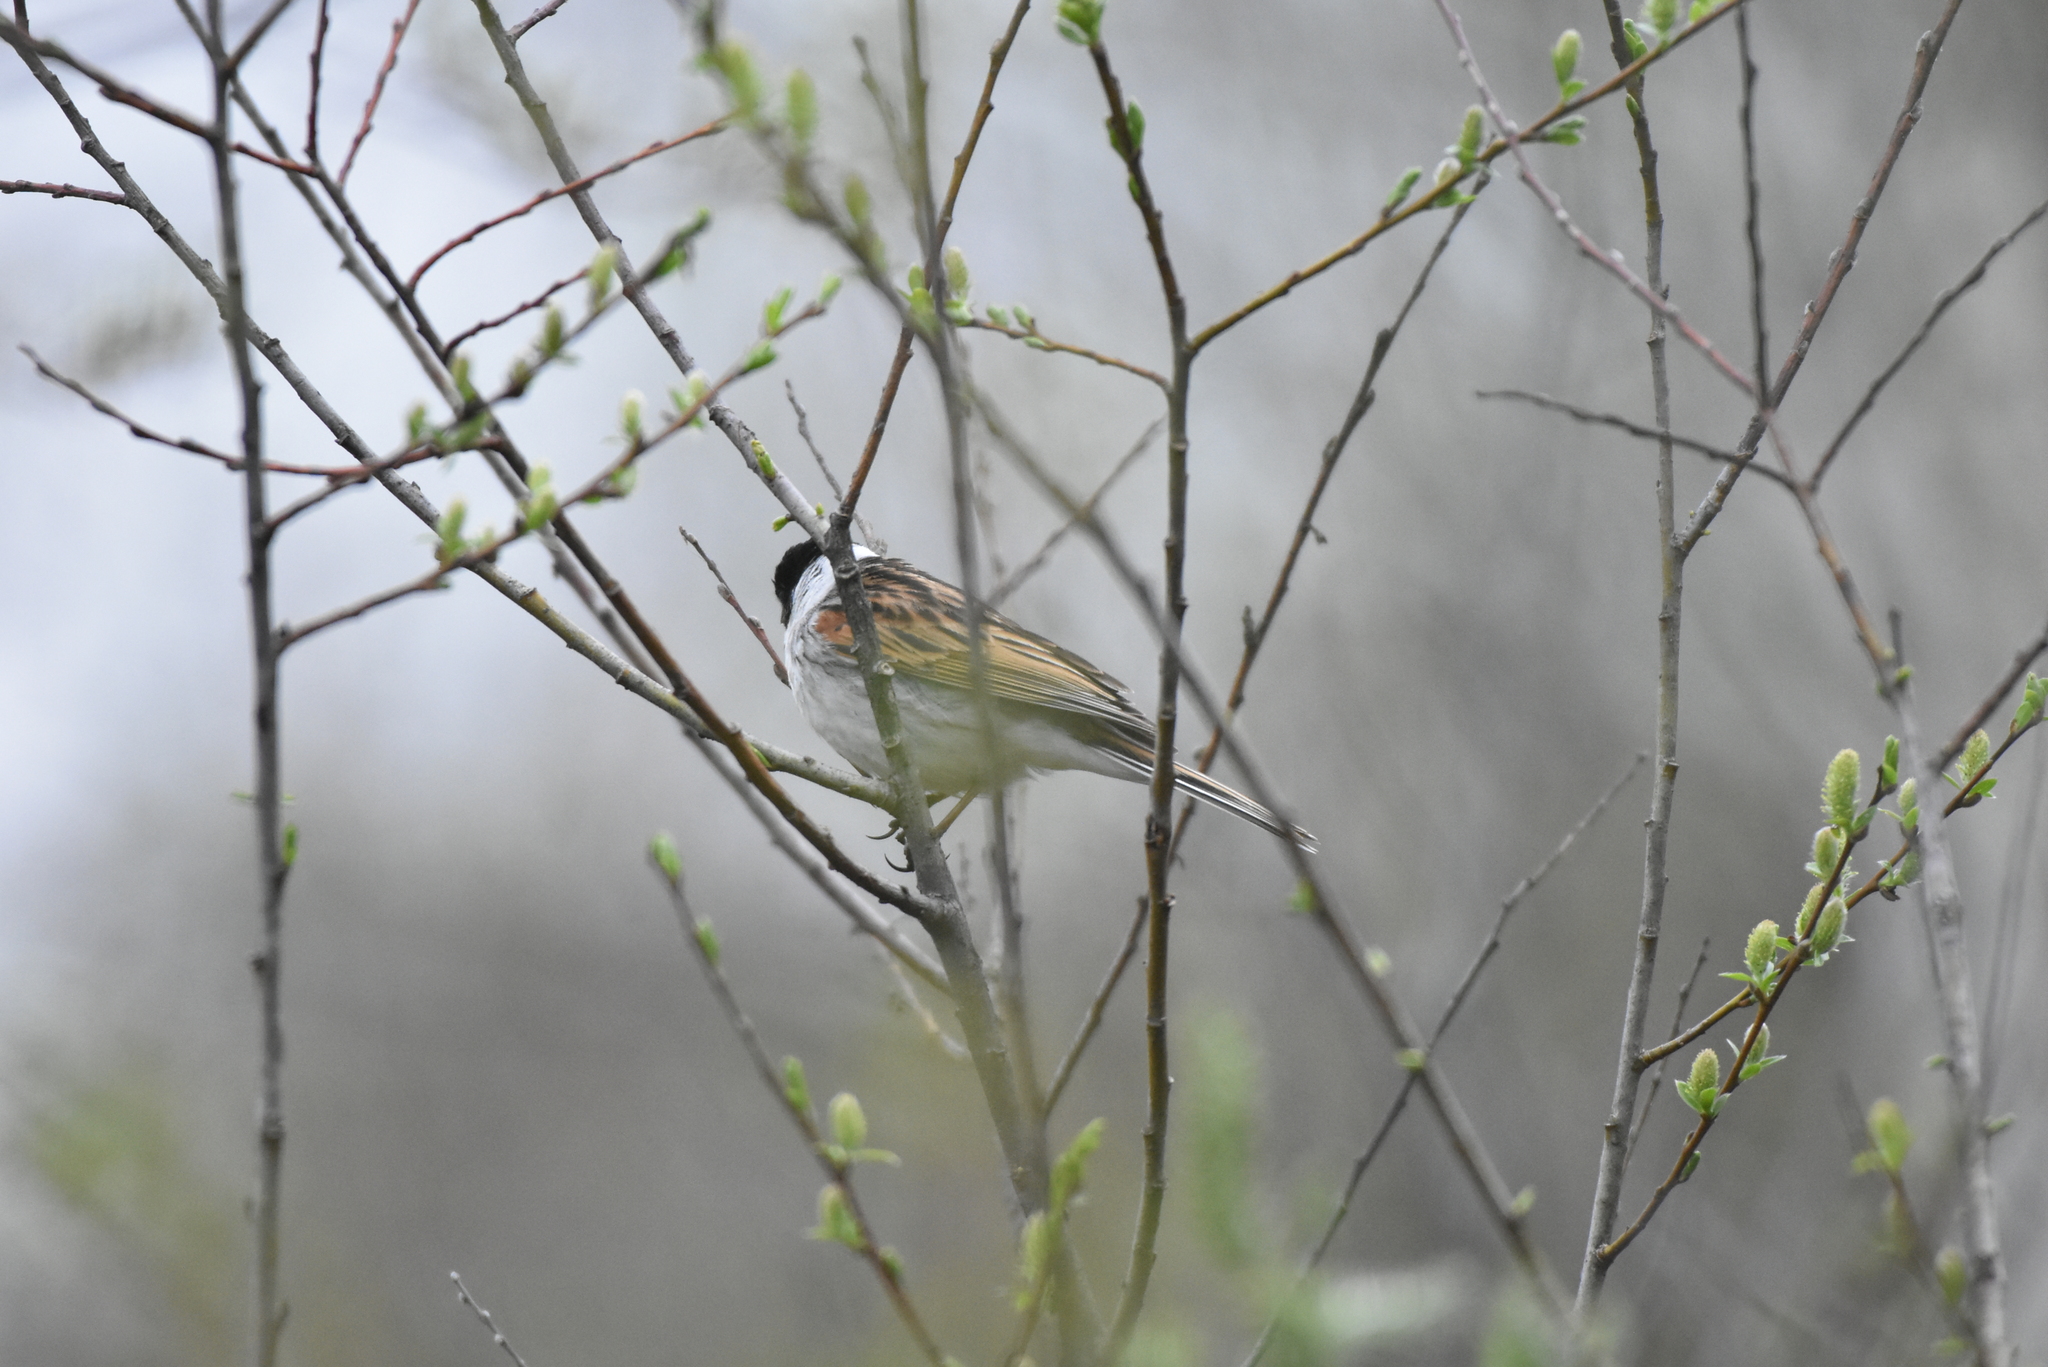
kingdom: Animalia
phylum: Chordata
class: Aves
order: Passeriformes
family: Emberizidae
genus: Emberiza
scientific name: Emberiza schoeniclus
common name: Reed bunting
